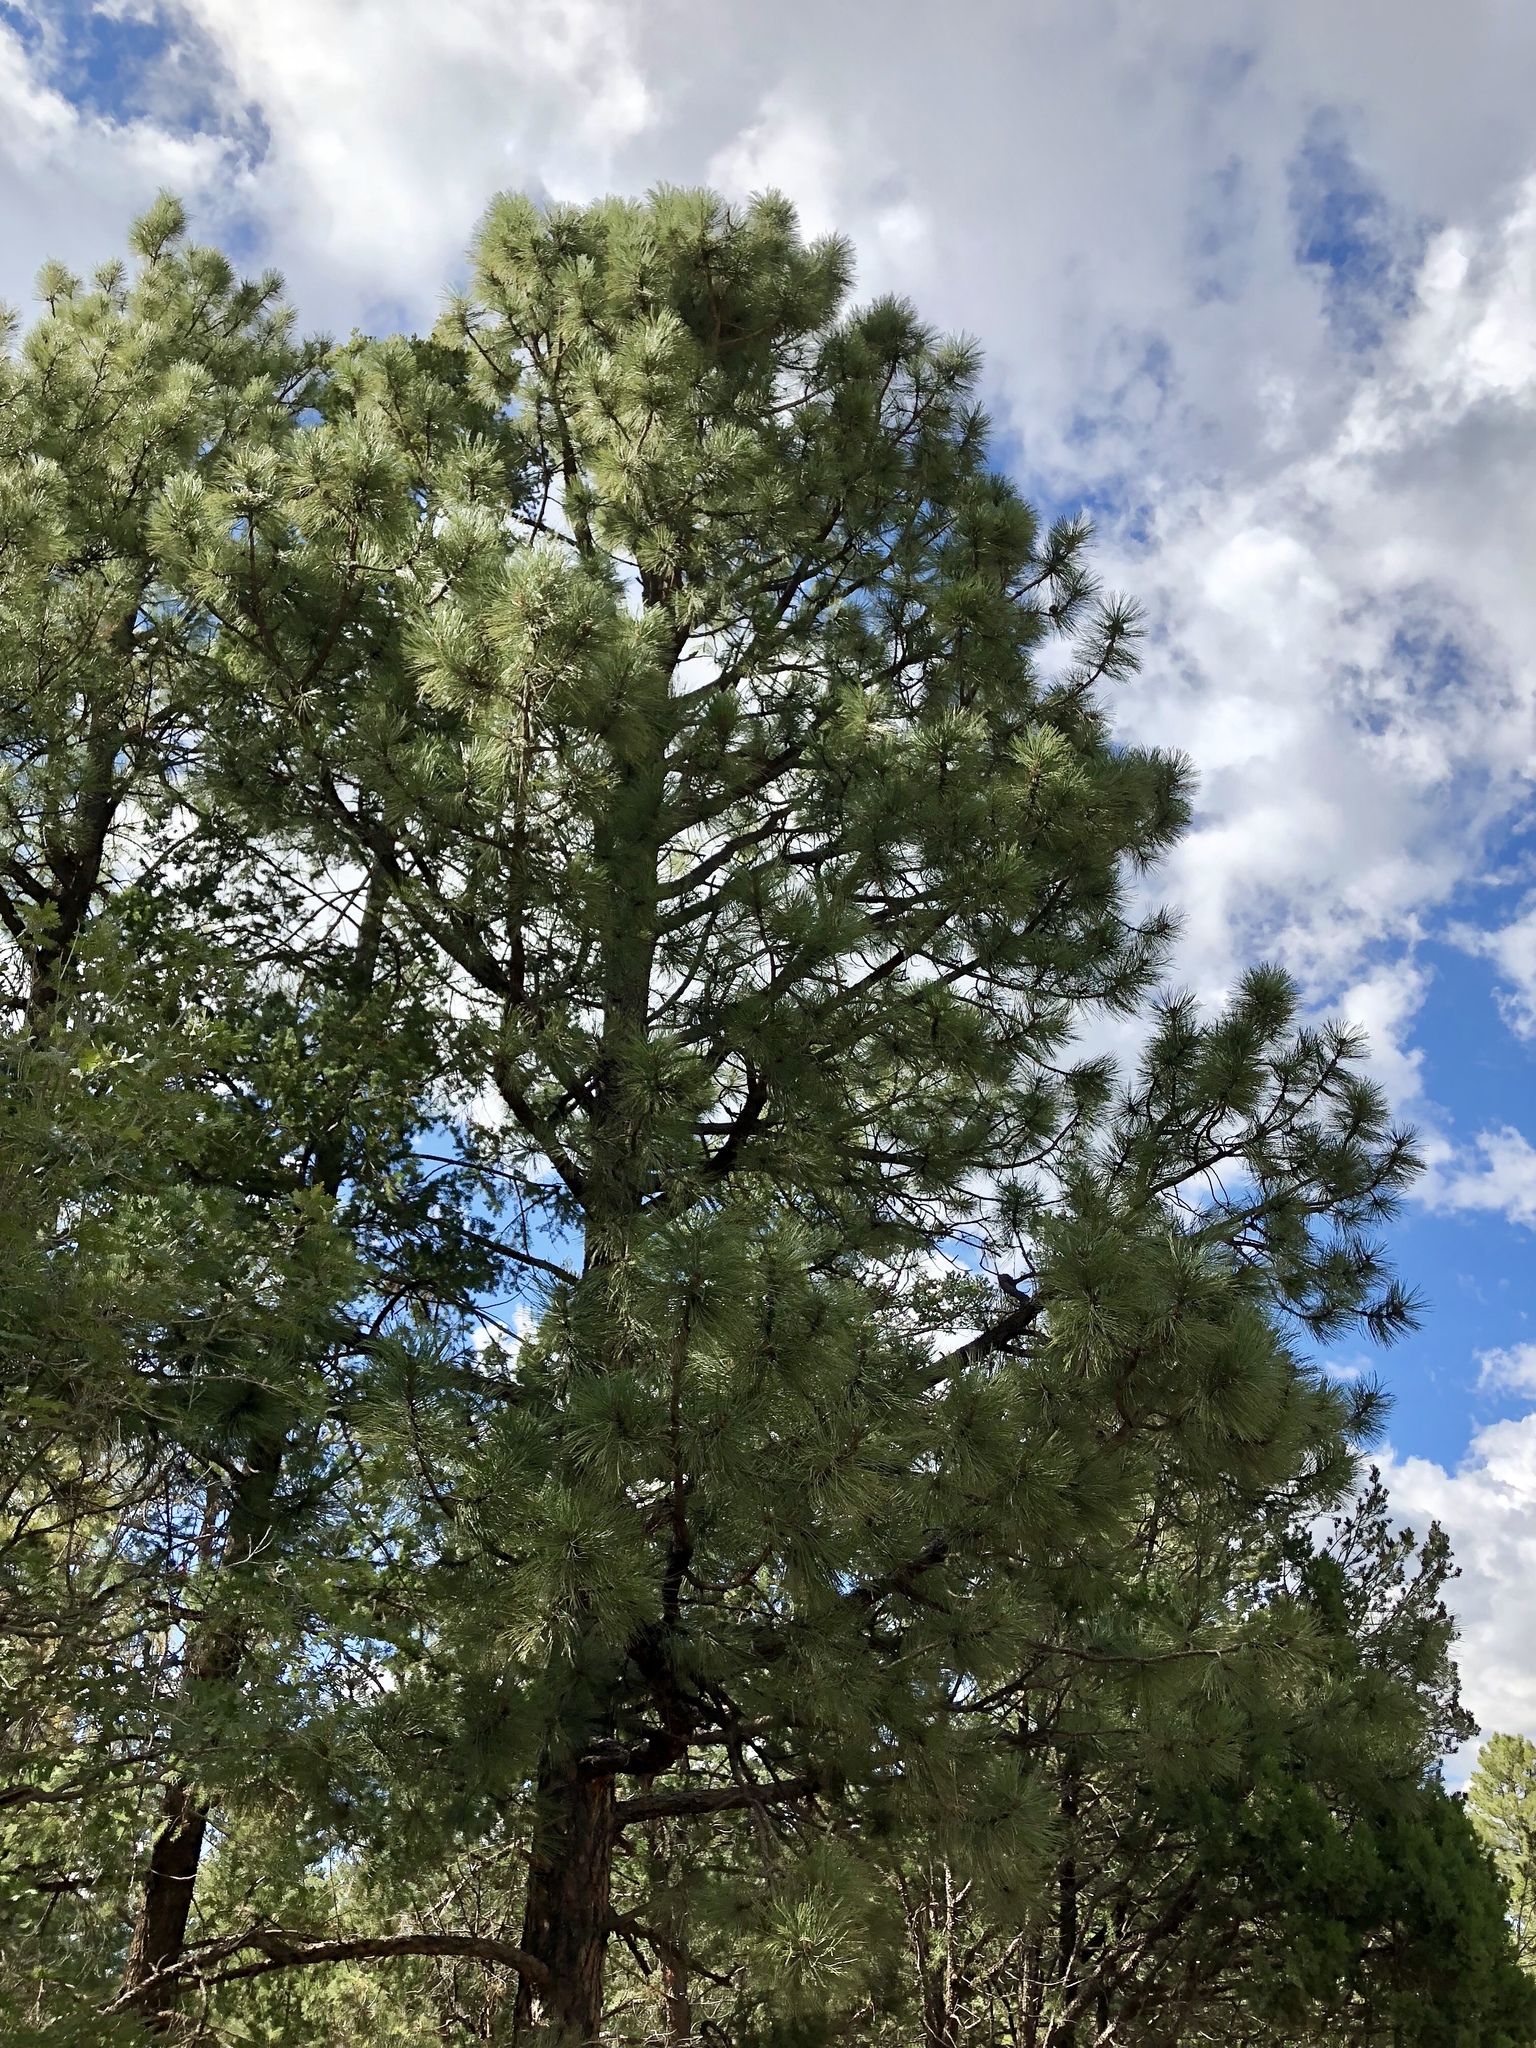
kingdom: Plantae
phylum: Tracheophyta
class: Pinopsida
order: Pinales
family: Pinaceae
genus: Pinus
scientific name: Pinus ponderosa
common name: Western yellow-pine
